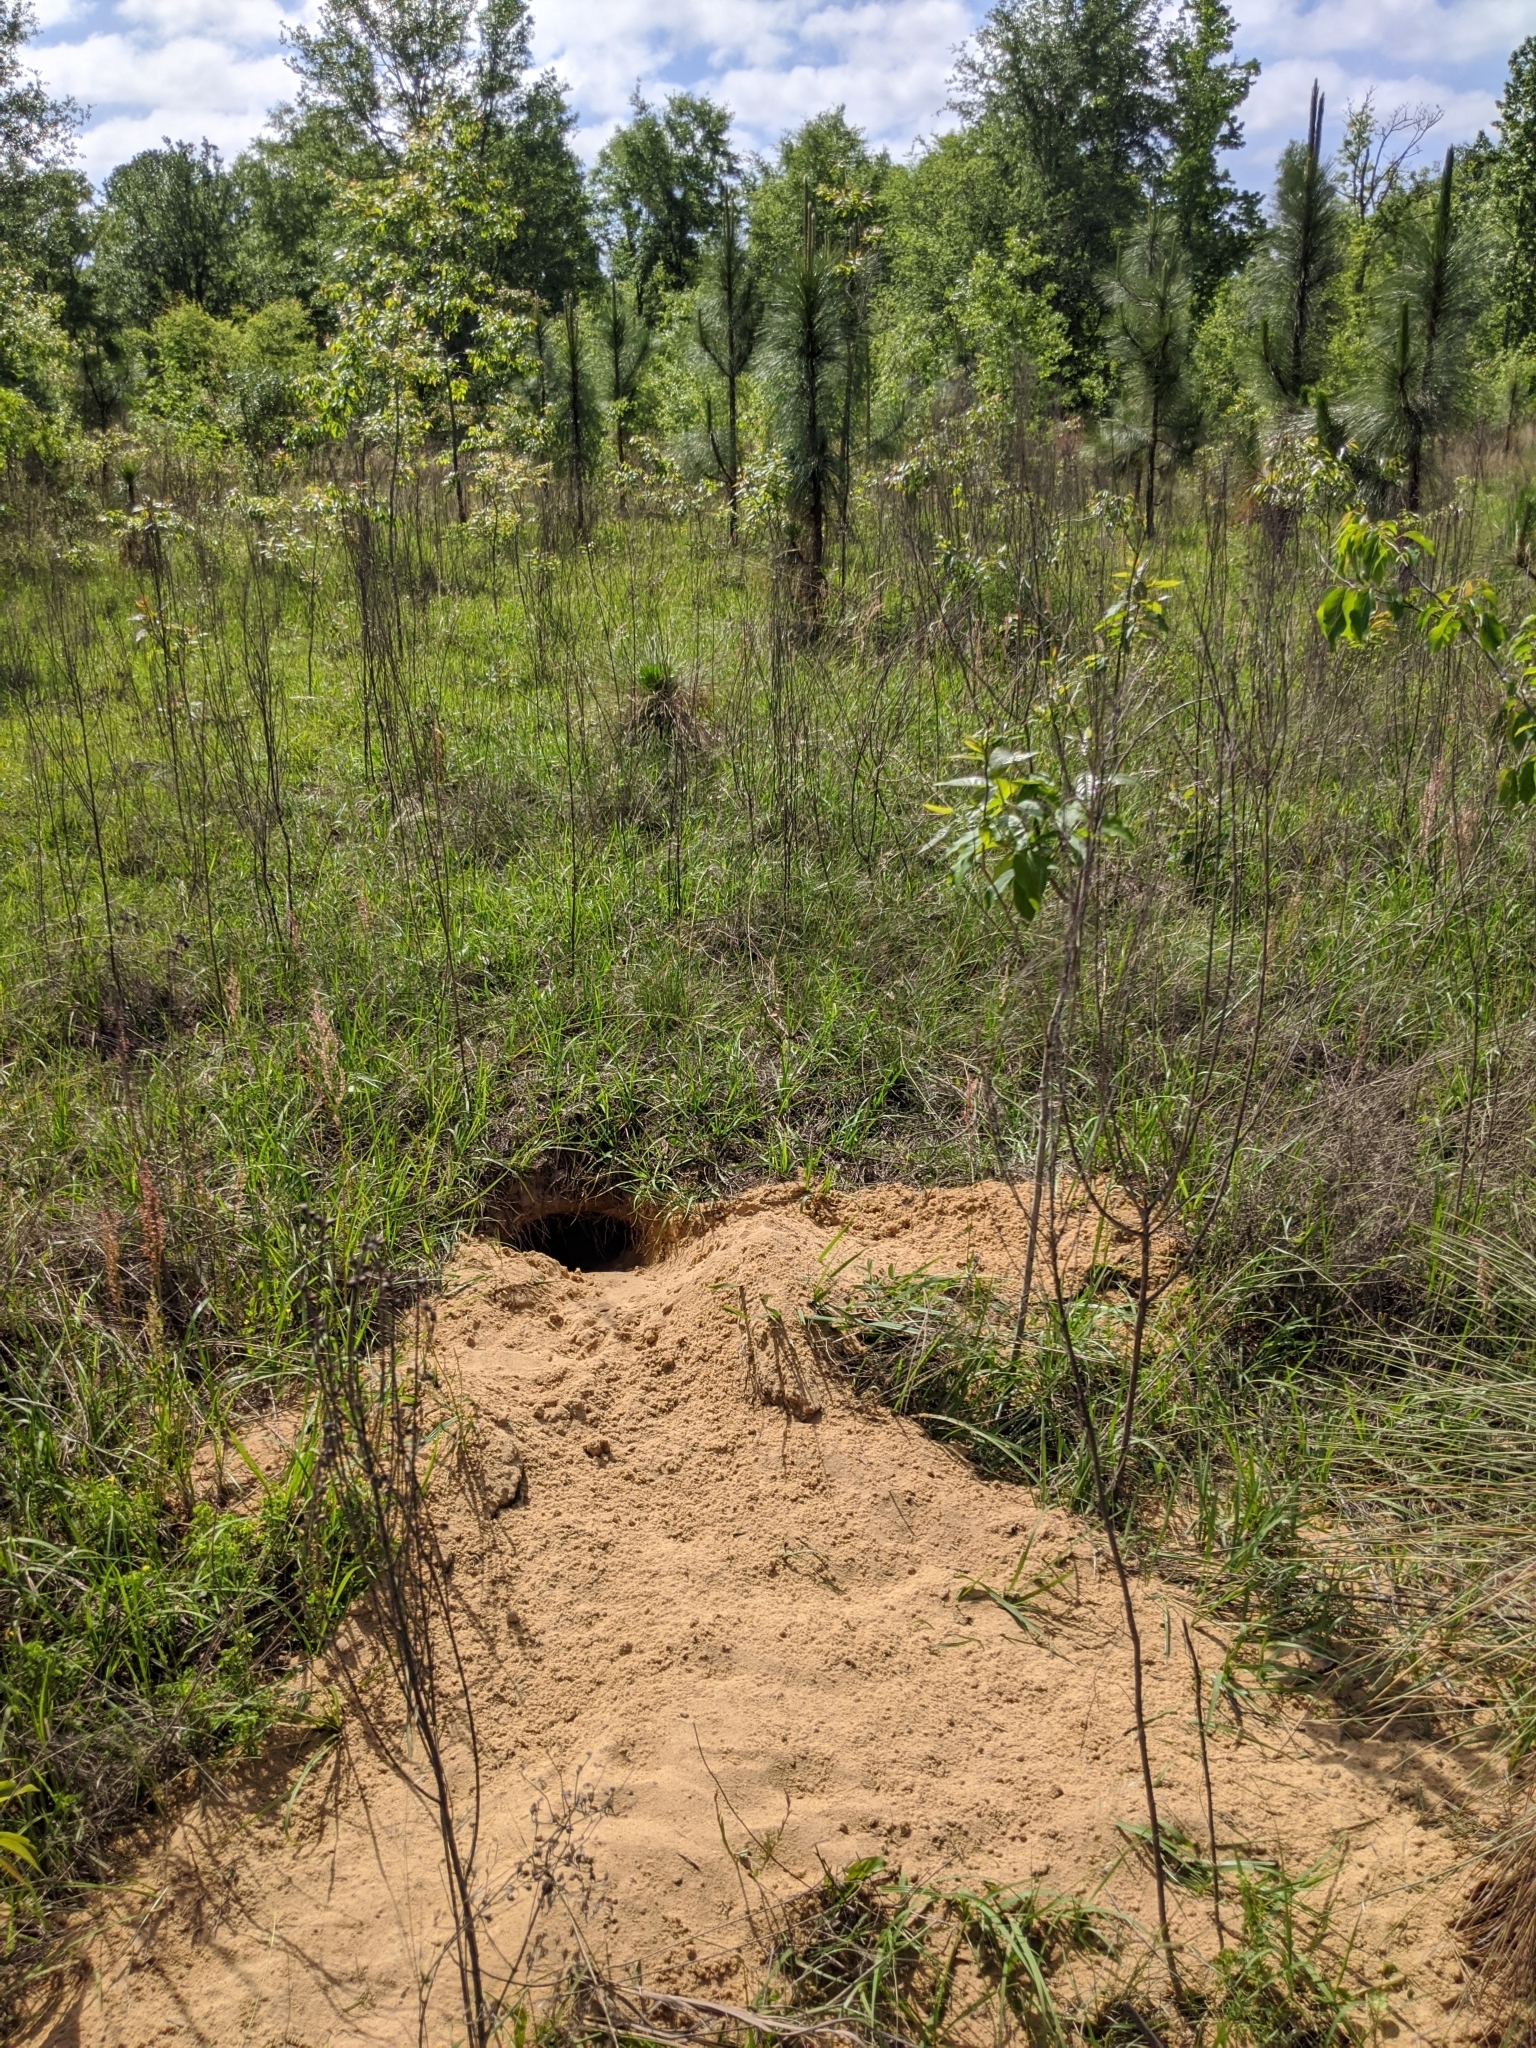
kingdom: Animalia
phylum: Chordata
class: Testudines
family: Testudinidae
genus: Gopherus
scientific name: Gopherus polyphemus
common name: Florida gopher tortoise
